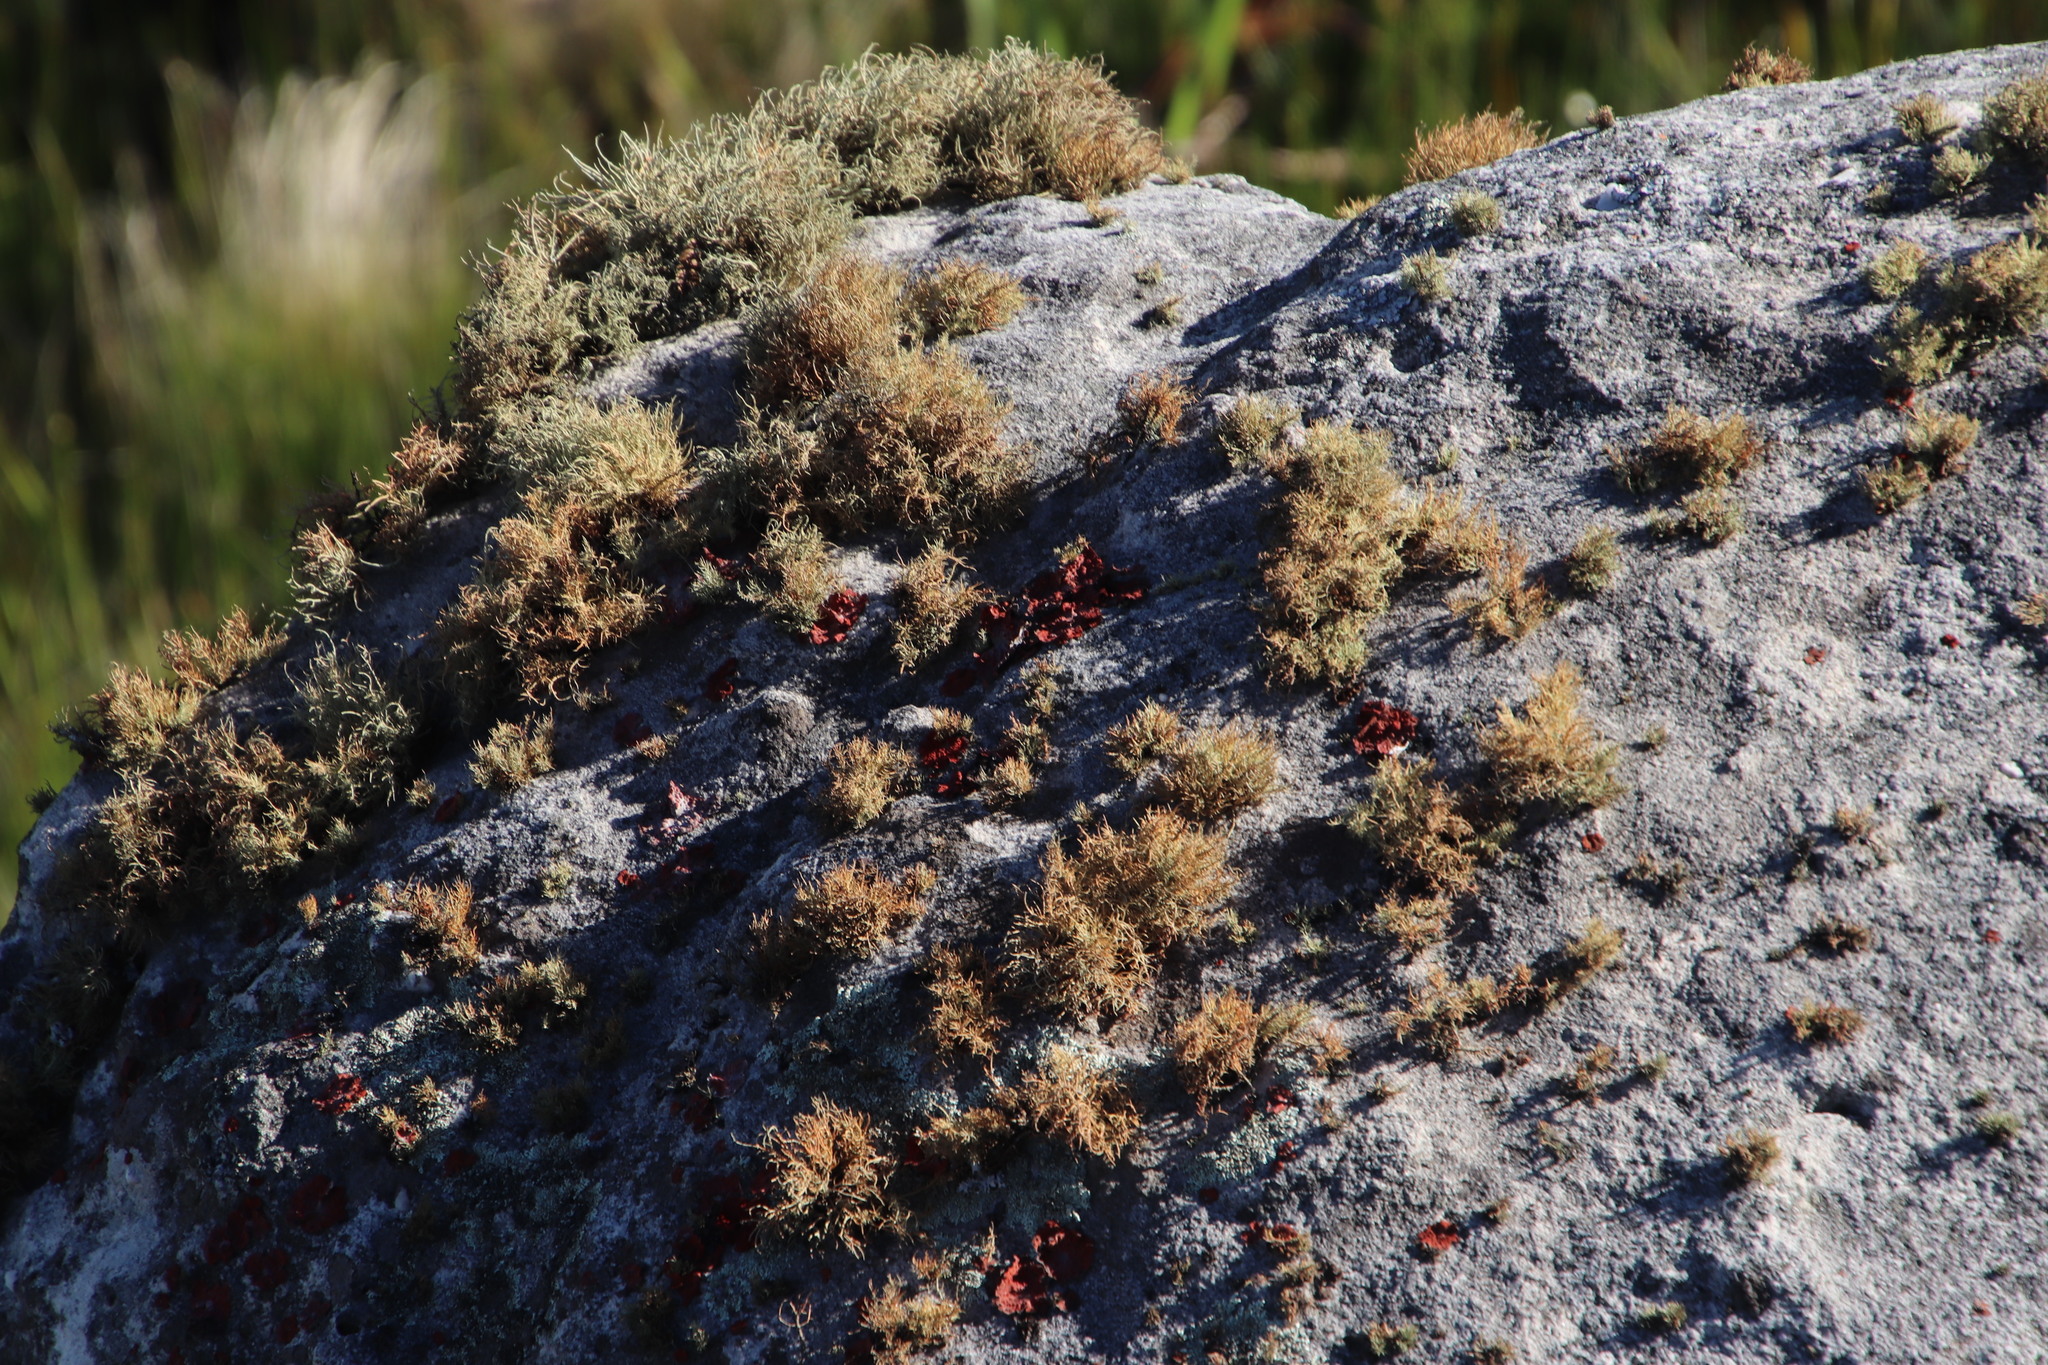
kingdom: Fungi
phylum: Ascomycota
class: Lecanoromycetes
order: Lecanorales
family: Parmeliaceae
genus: Usnea
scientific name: Usnea maculata
